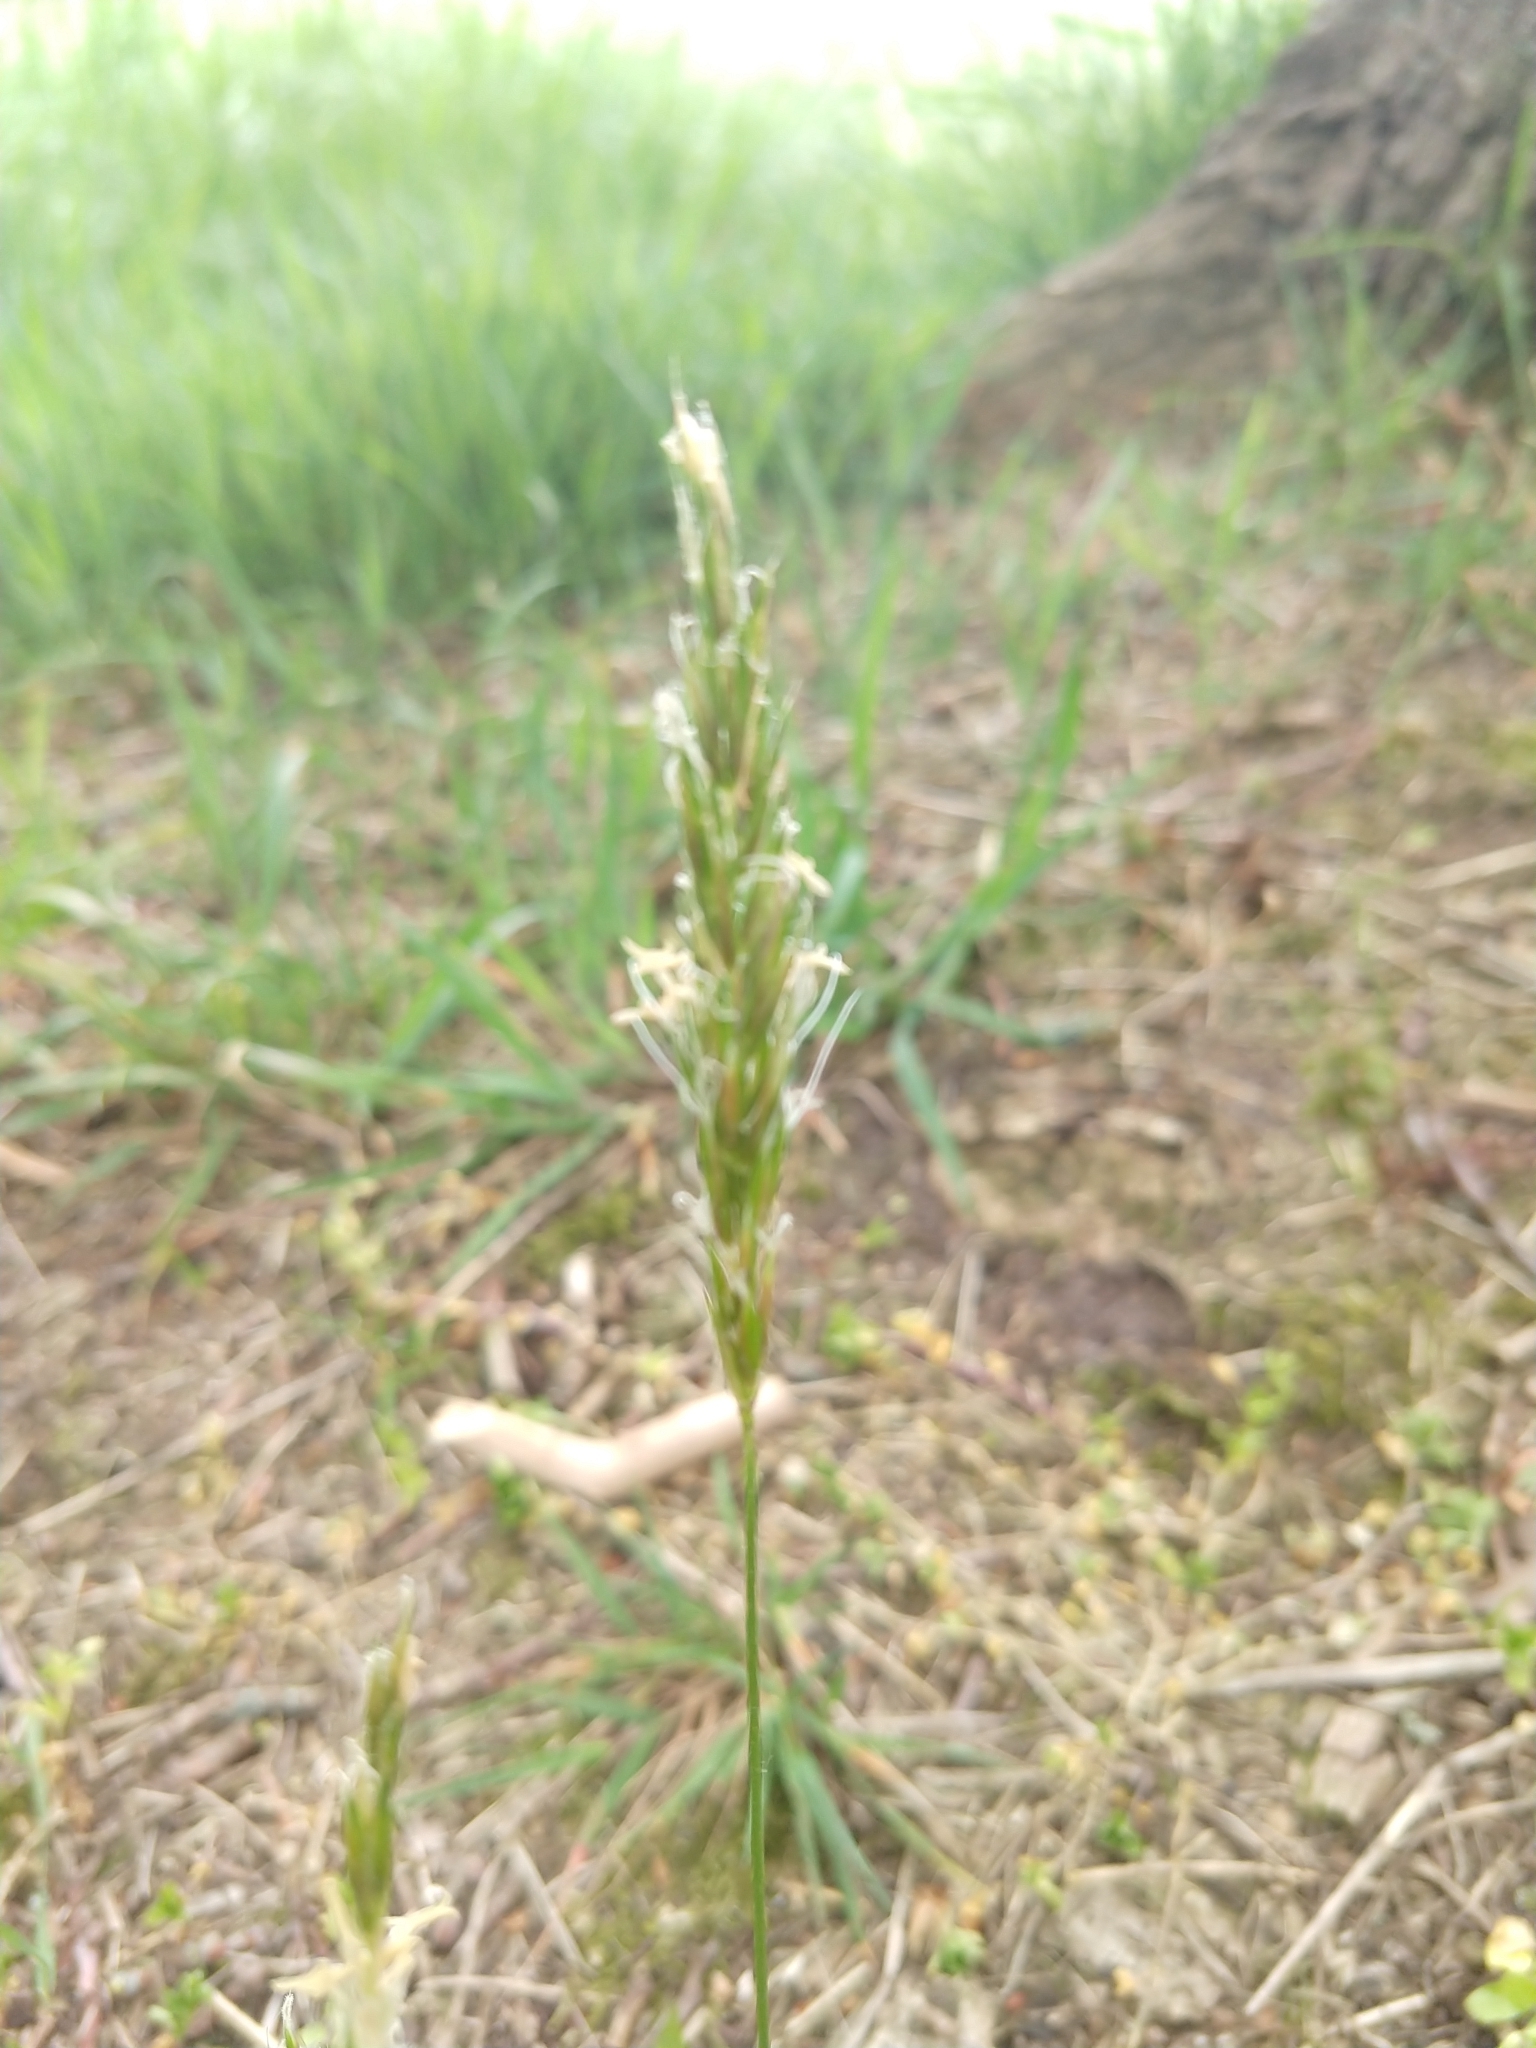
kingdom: Plantae
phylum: Tracheophyta
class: Liliopsida
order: Poales
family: Poaceae
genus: Anthoxanthum
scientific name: Anthoxanthum odoratum
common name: Sweet vernalgrass
